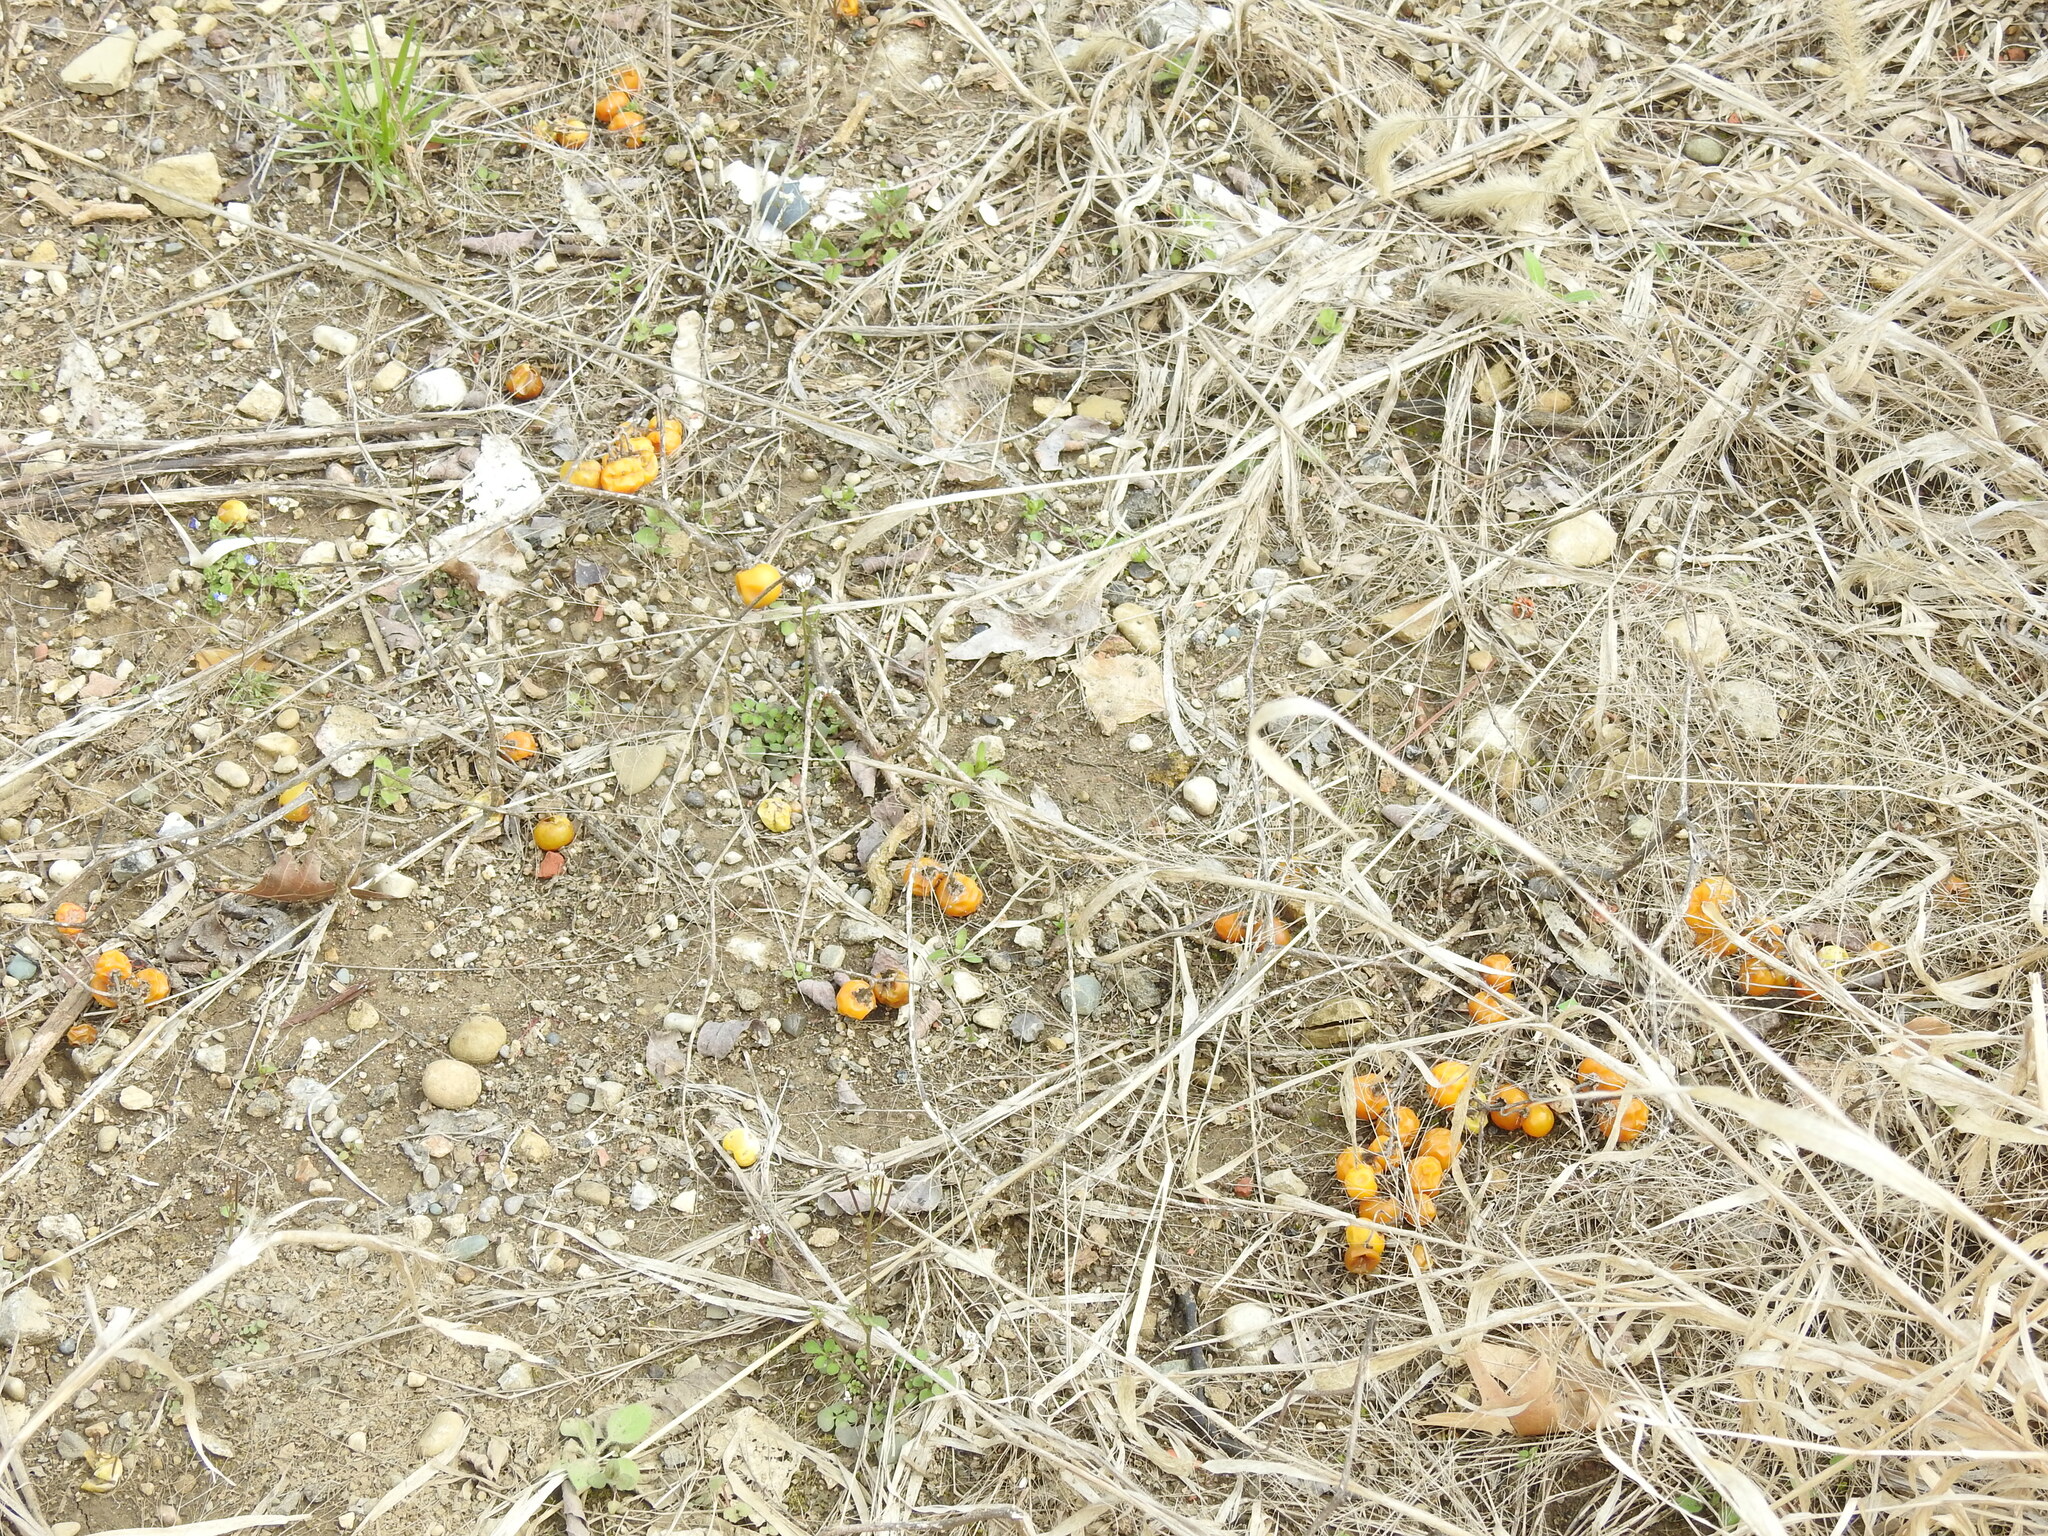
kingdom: Plantae
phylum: Tracheophyta
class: Magnoliopsida
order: Solanales
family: Solanaceae
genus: Solanum
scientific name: Solanum carolinense
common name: Horse-nettle
